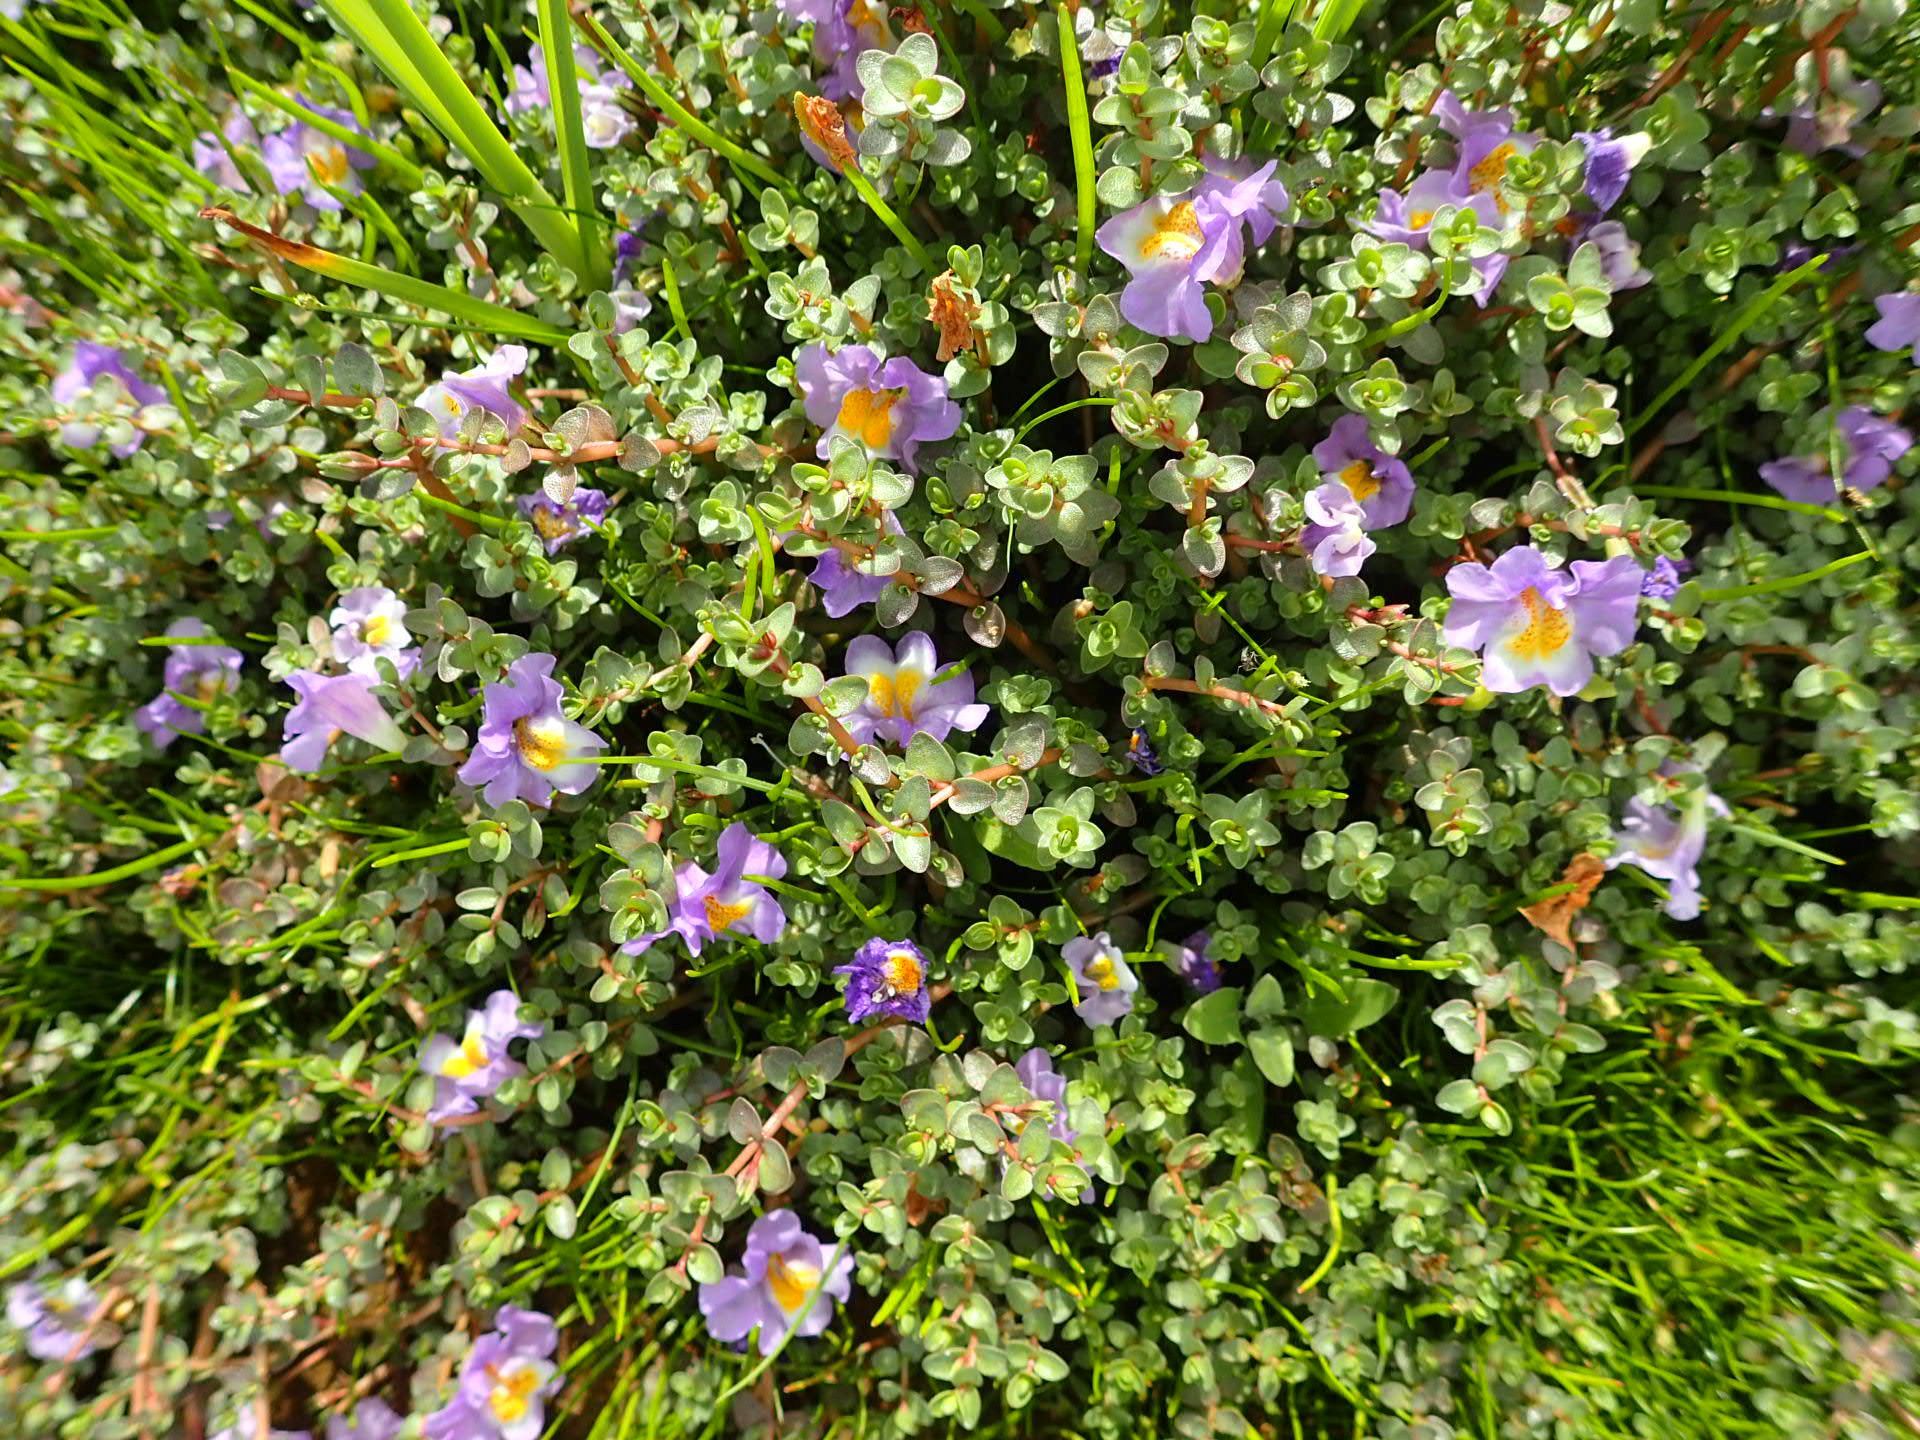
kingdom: Plantae
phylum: Tracheophyta
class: Magnoliopsida
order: Lamiales
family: Phrymaceae
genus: Thyridia
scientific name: Thyridia repens
